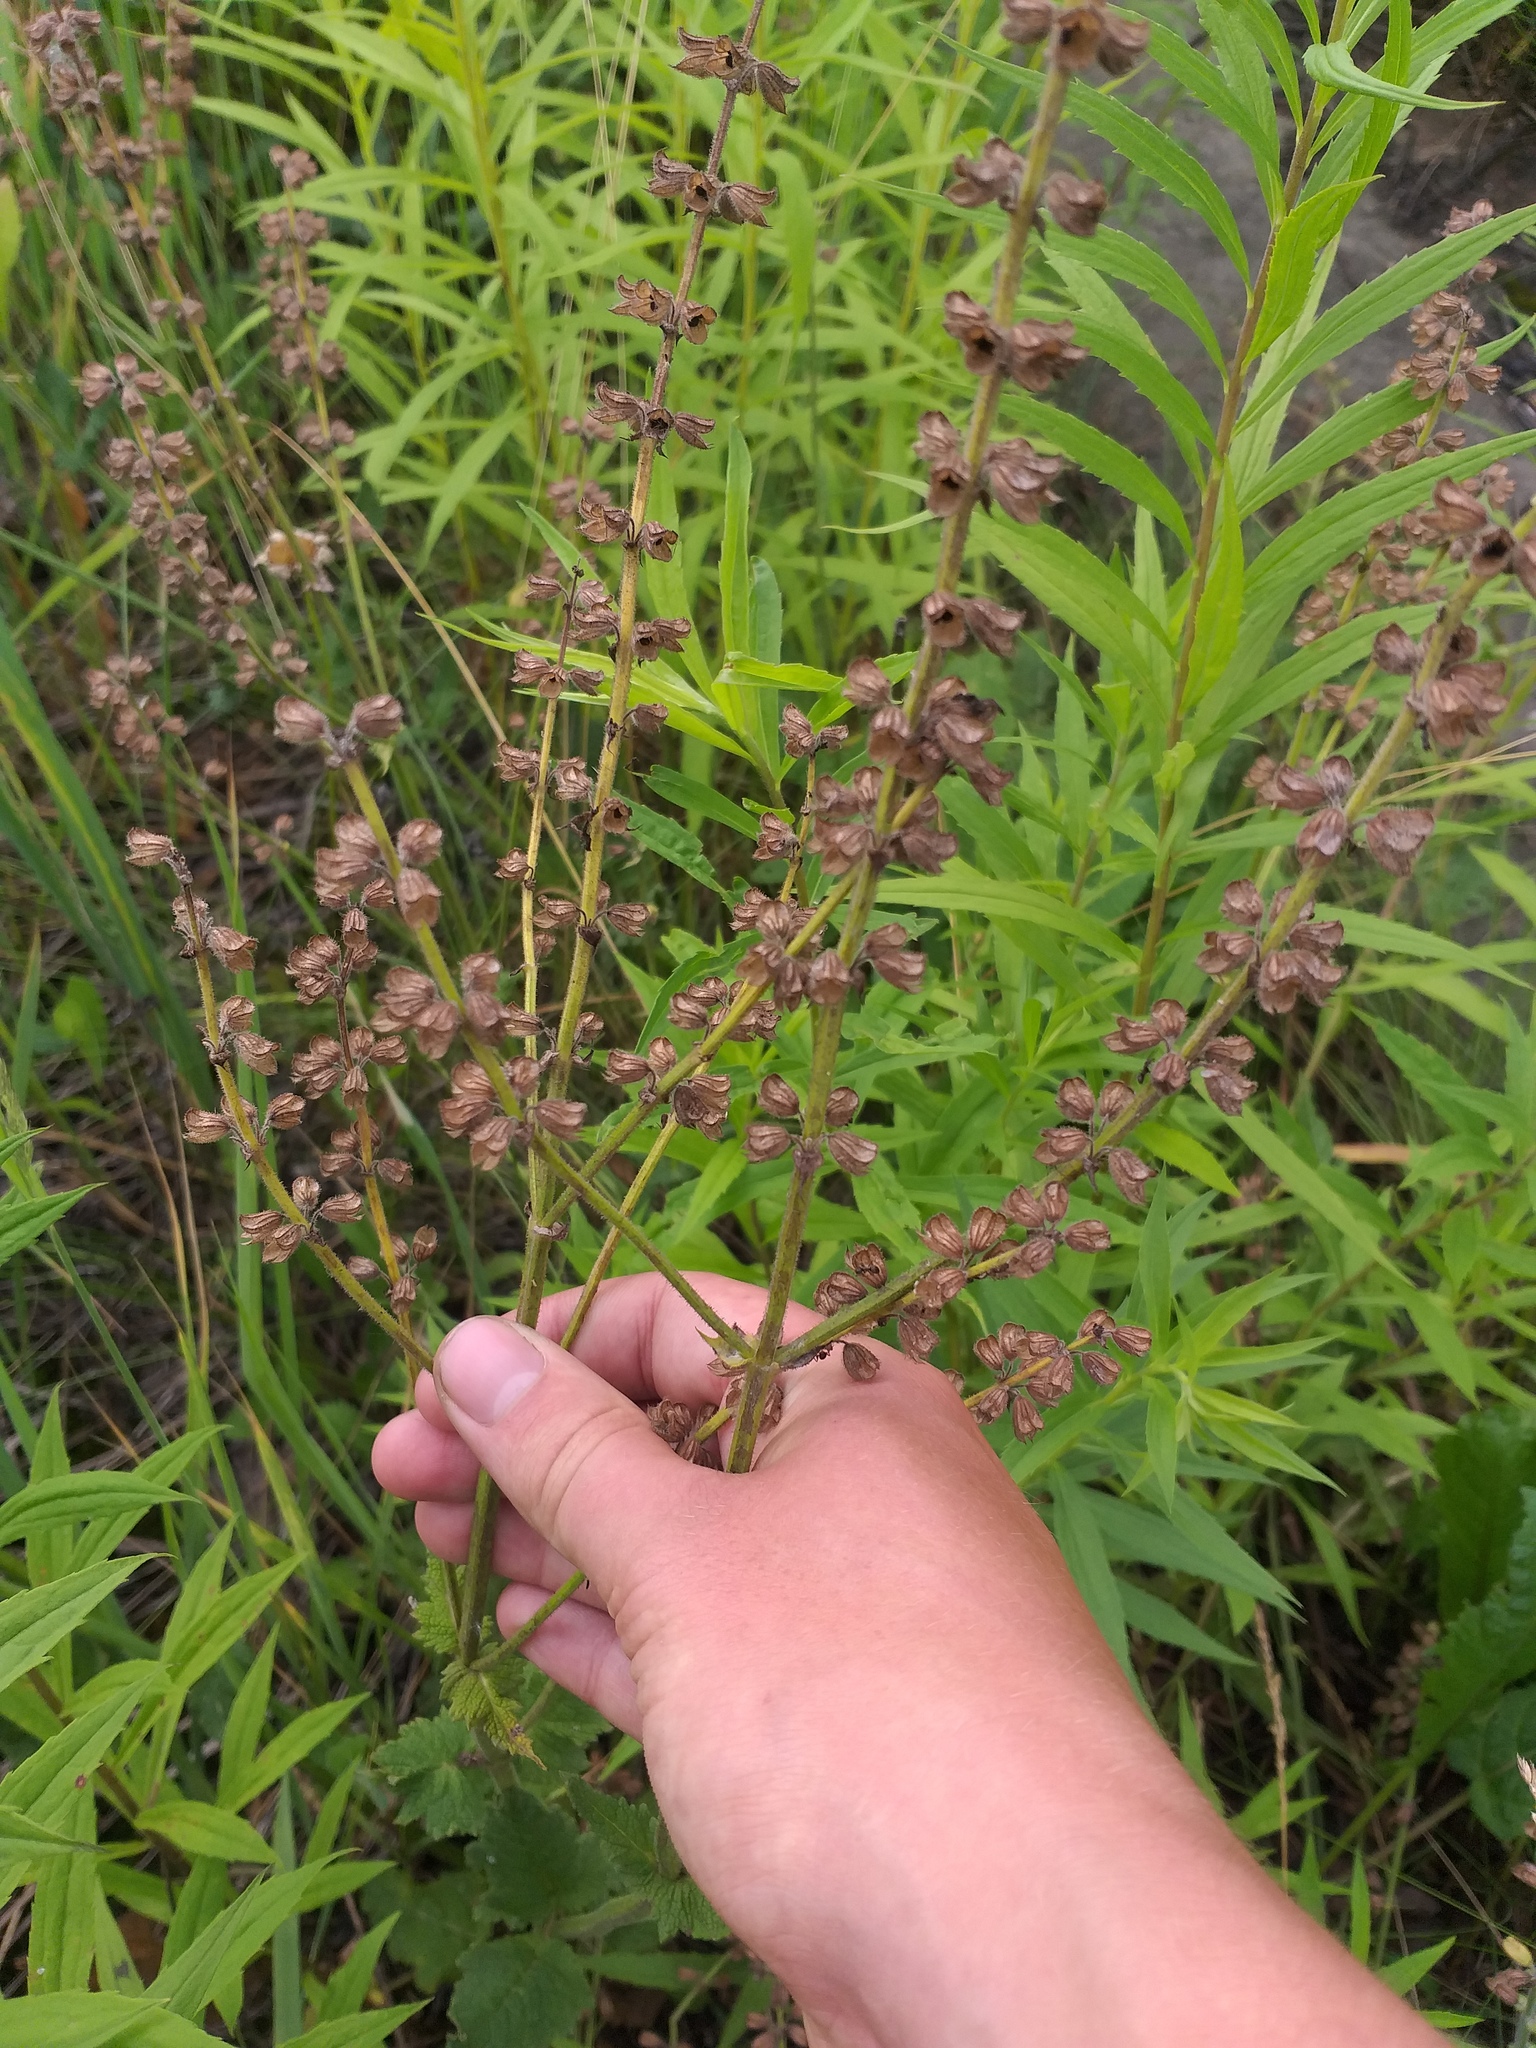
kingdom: Plantae
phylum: Tracheophyta
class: Magnoliopsida
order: Lamiales
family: Lamiaceae
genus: Salvia
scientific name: Salvia pratensis
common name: Meadow sage
